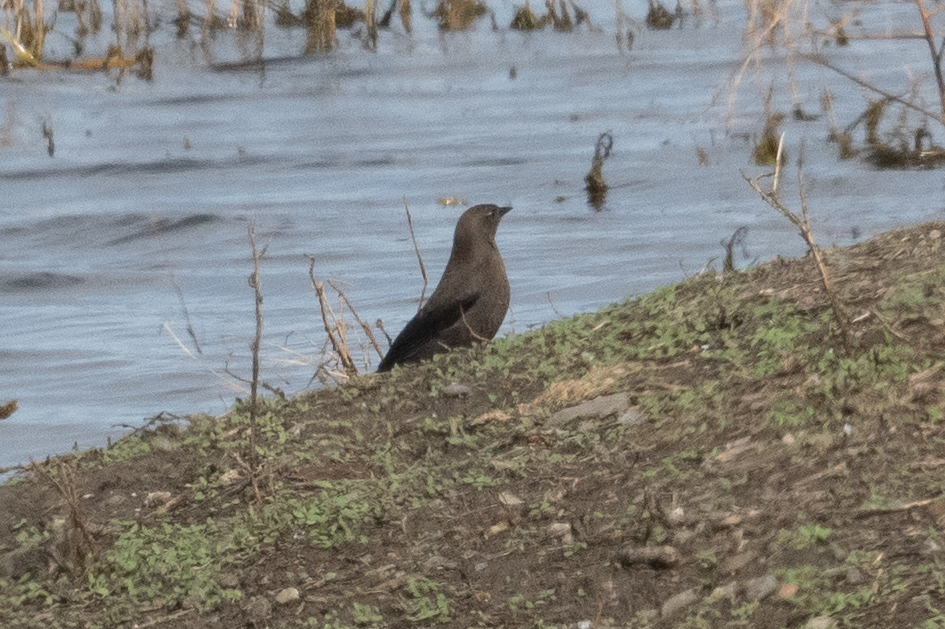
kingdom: Animalia
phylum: Chordata
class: Aves
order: Passeriformes
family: Icteridae
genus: Euphagus
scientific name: Euphagus cyanocephalus
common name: Brewer's blackbird
